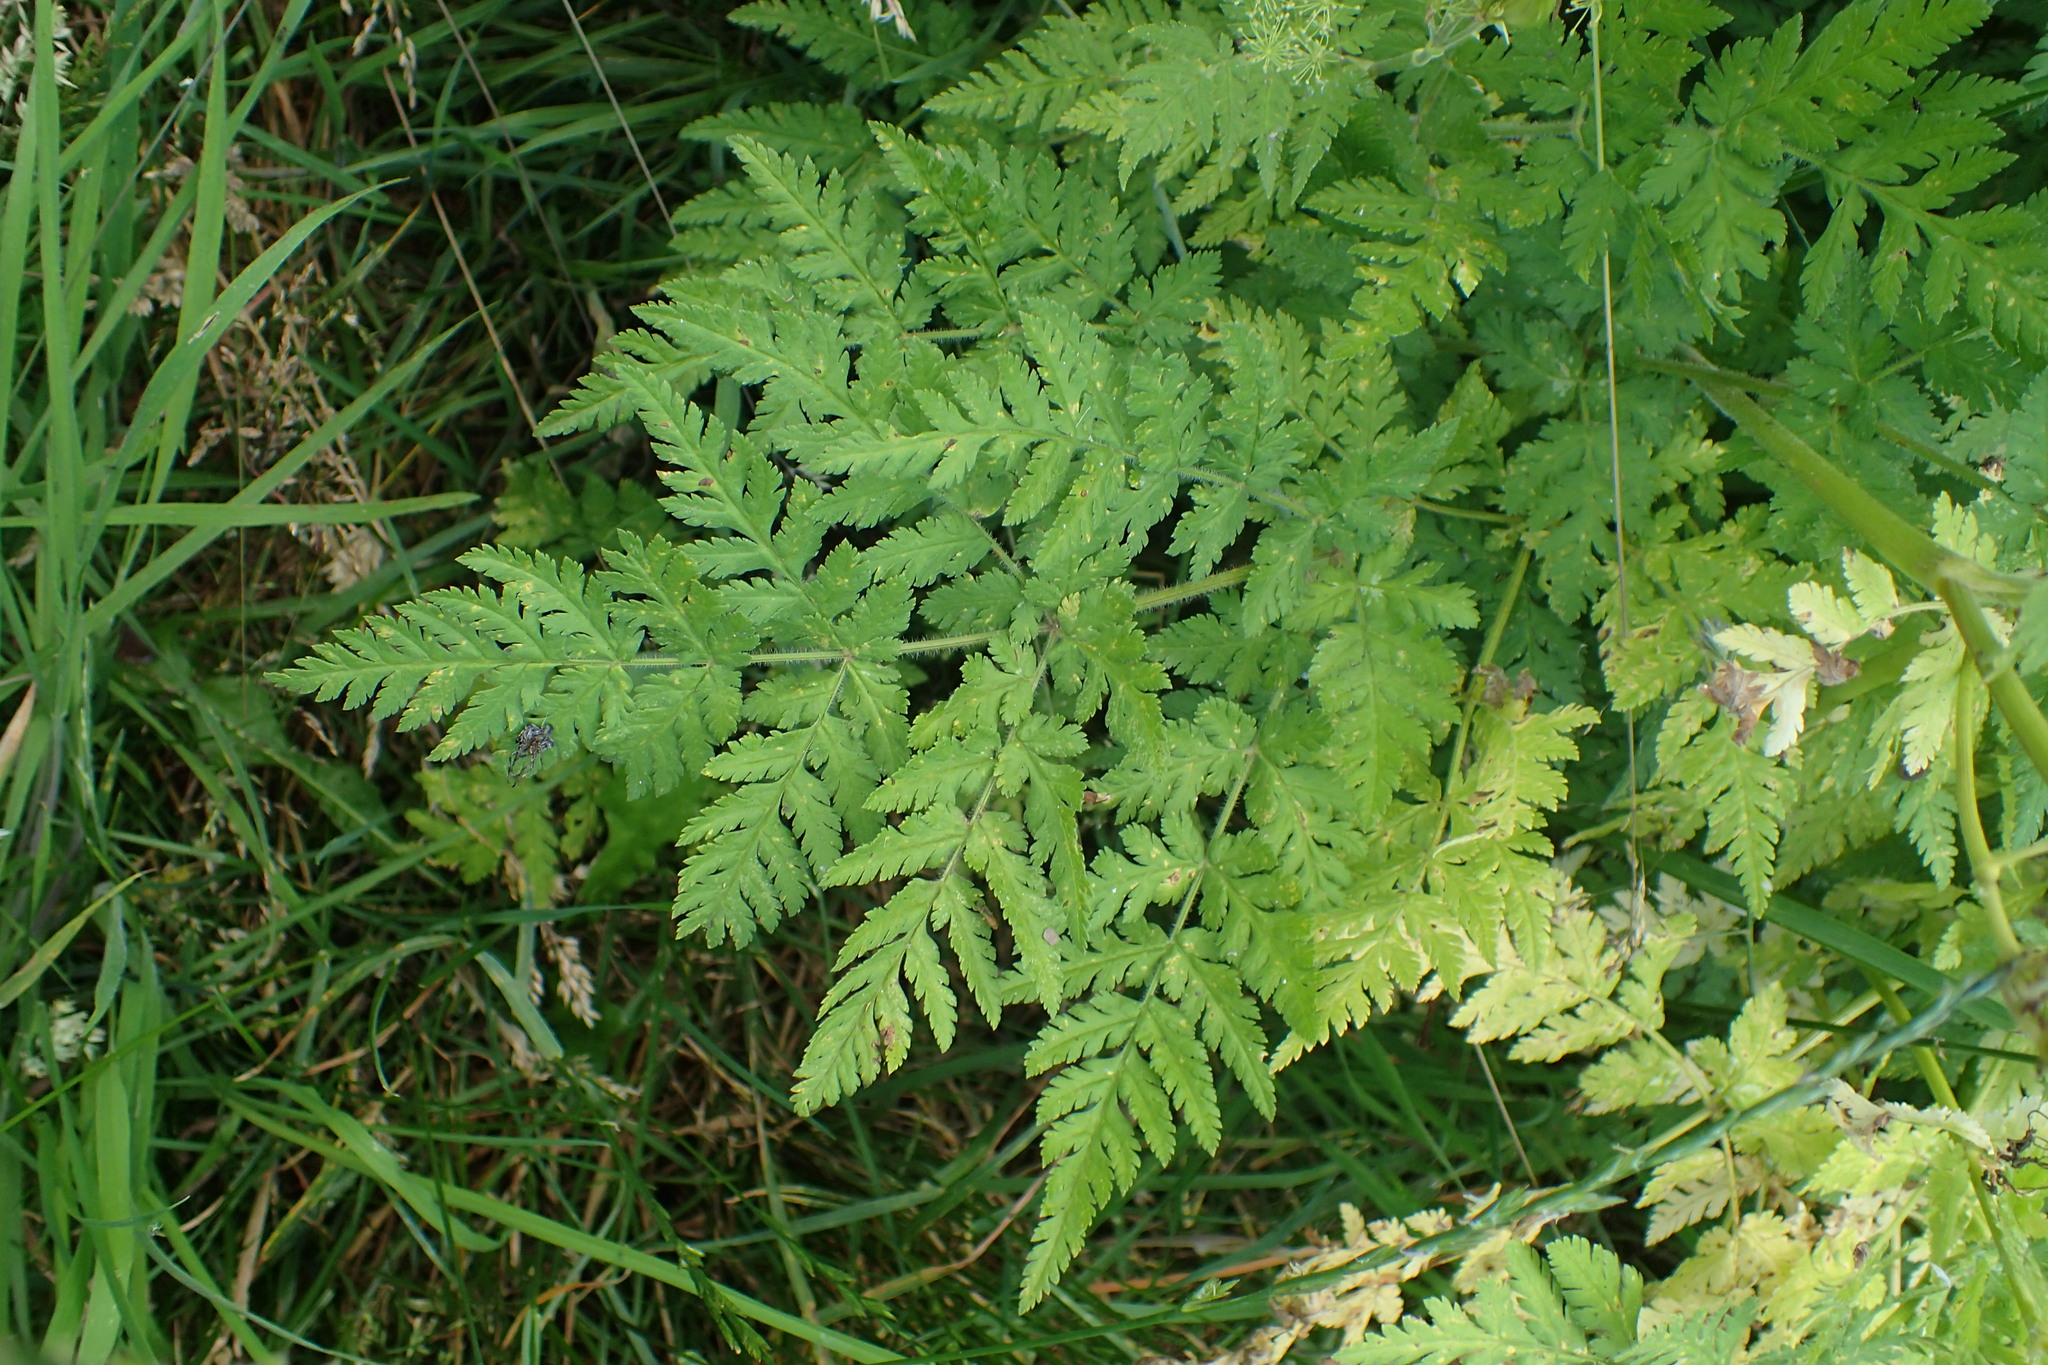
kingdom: Plantae
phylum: Tracheophyta
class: Magnoliopsida
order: Apiales
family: Apiaceae
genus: Myrrhis
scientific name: Myrrhis odorata
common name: Sweet cicely
